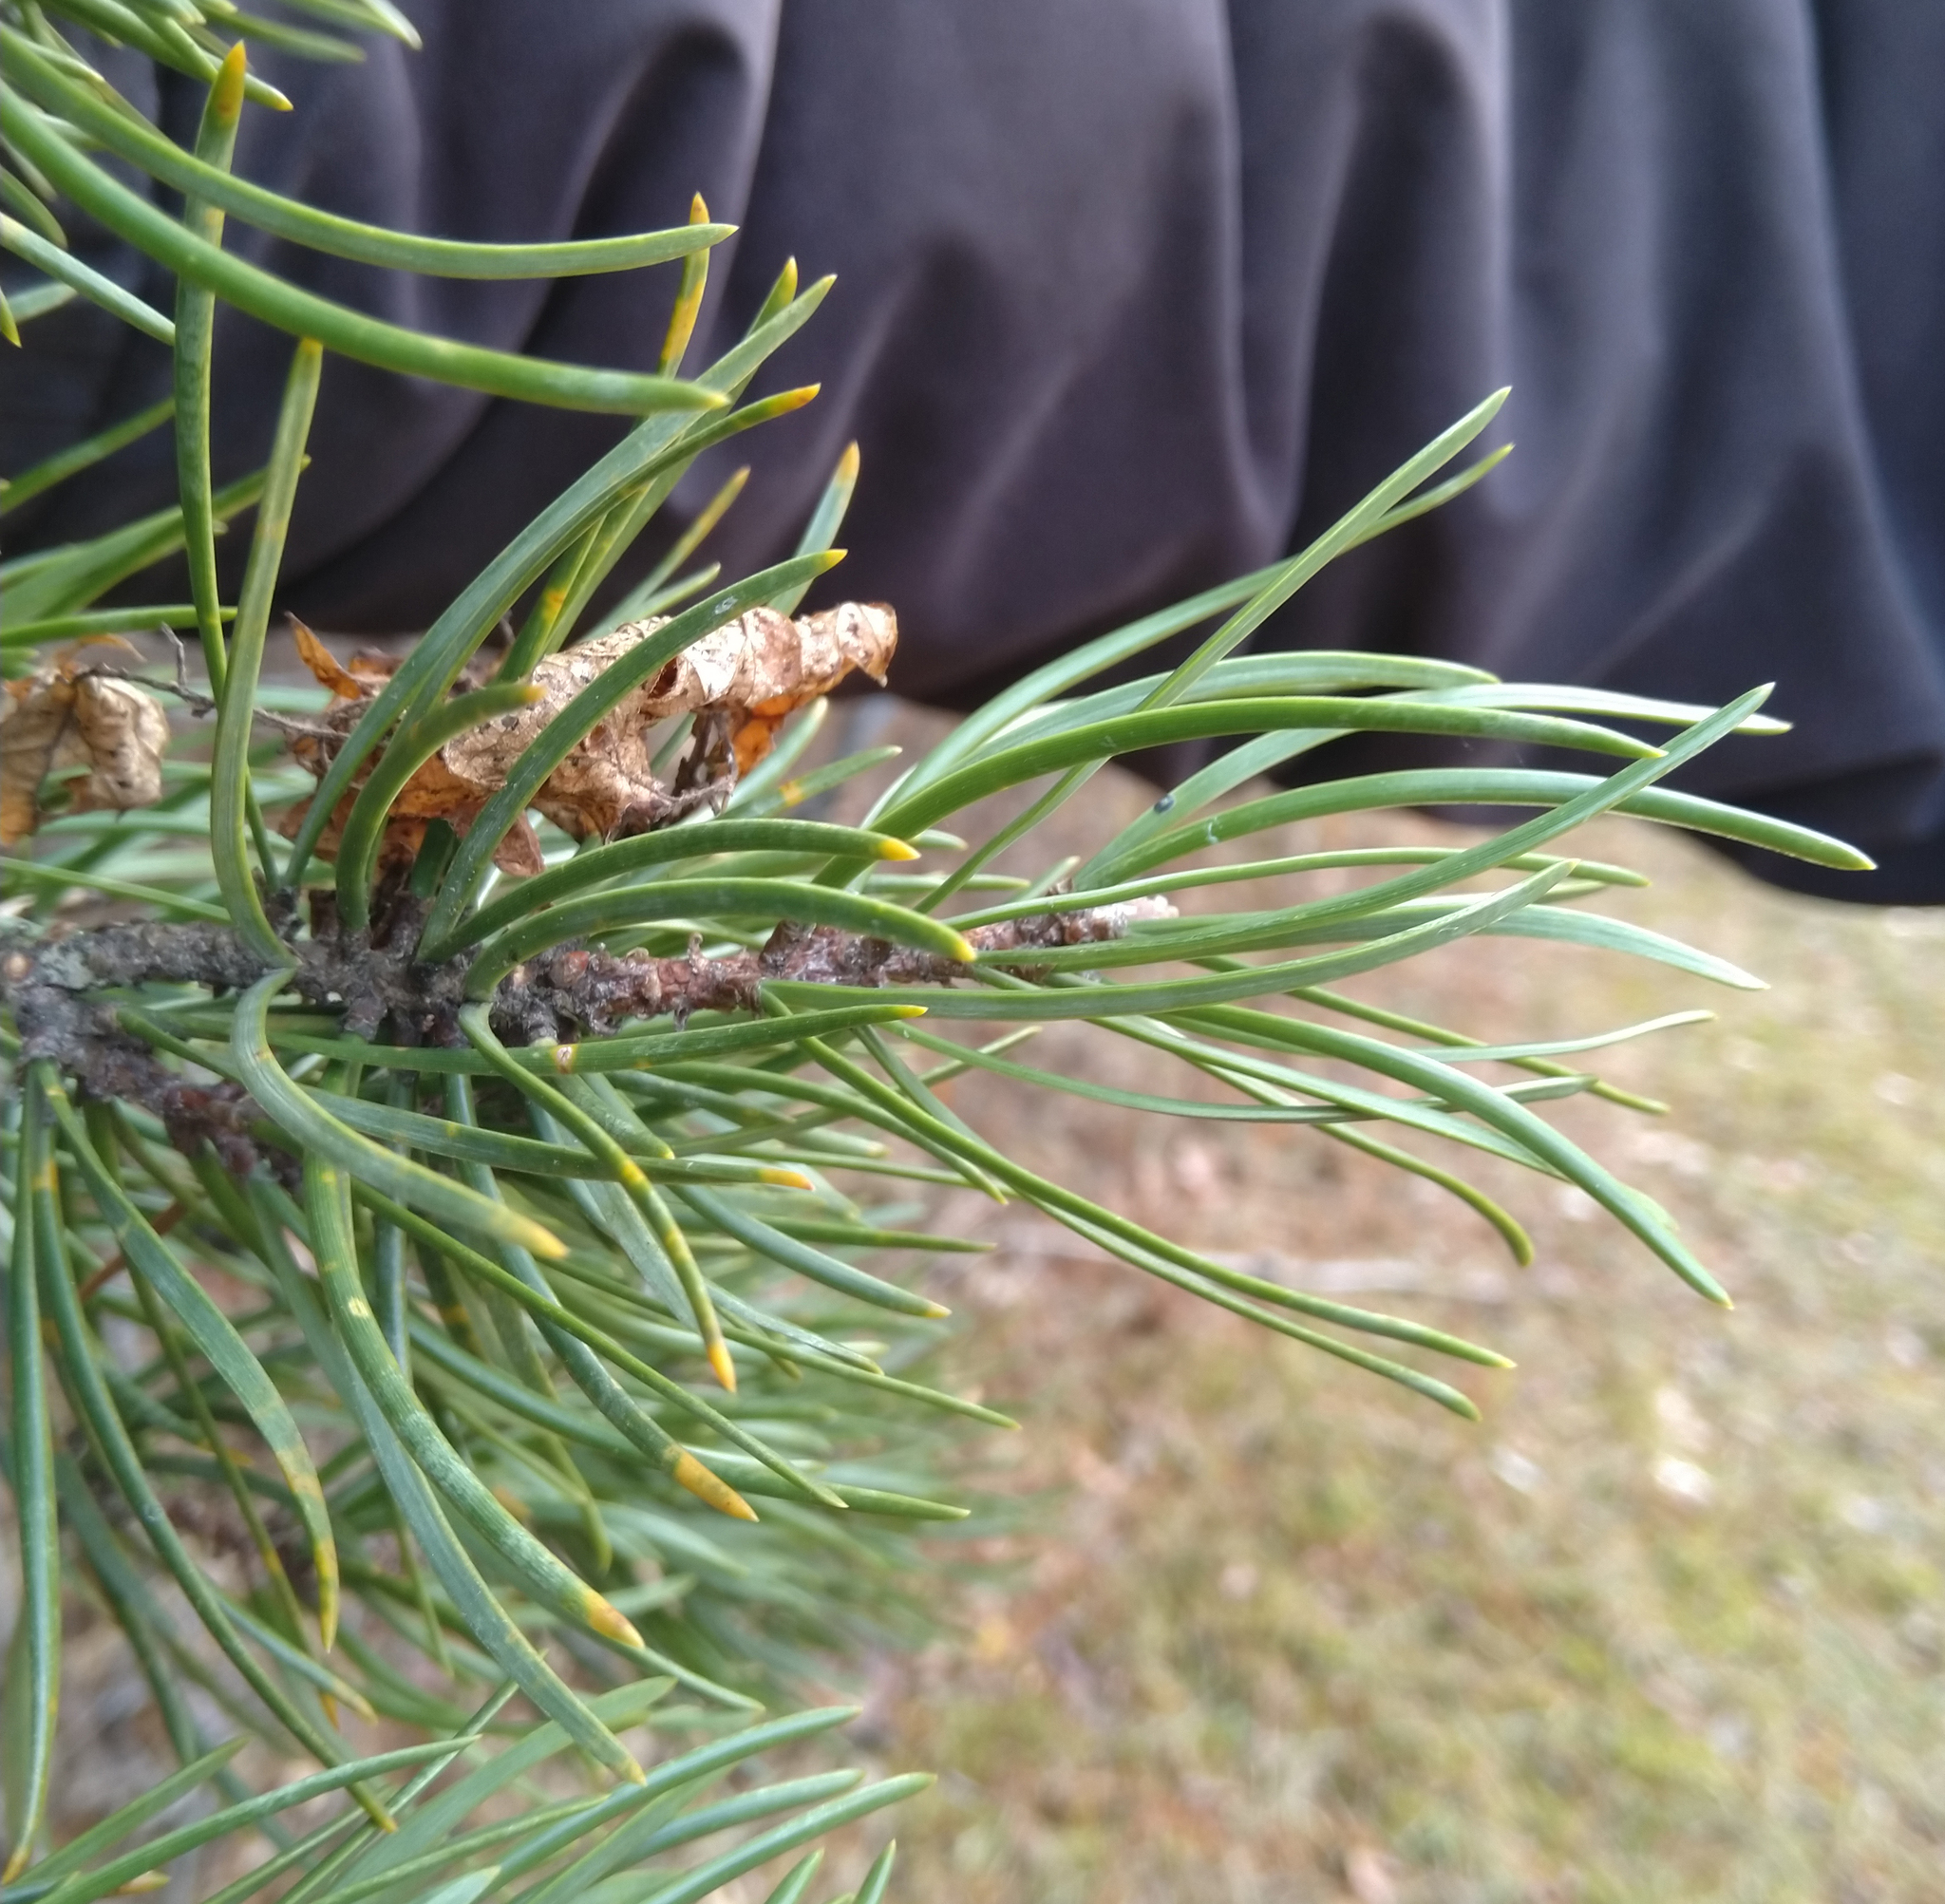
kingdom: Plantae
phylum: Tracheophyta
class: Pinopsida
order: Pinales
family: Pinaceae
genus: Pinus
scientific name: Pinus banksiana
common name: Jack pine
